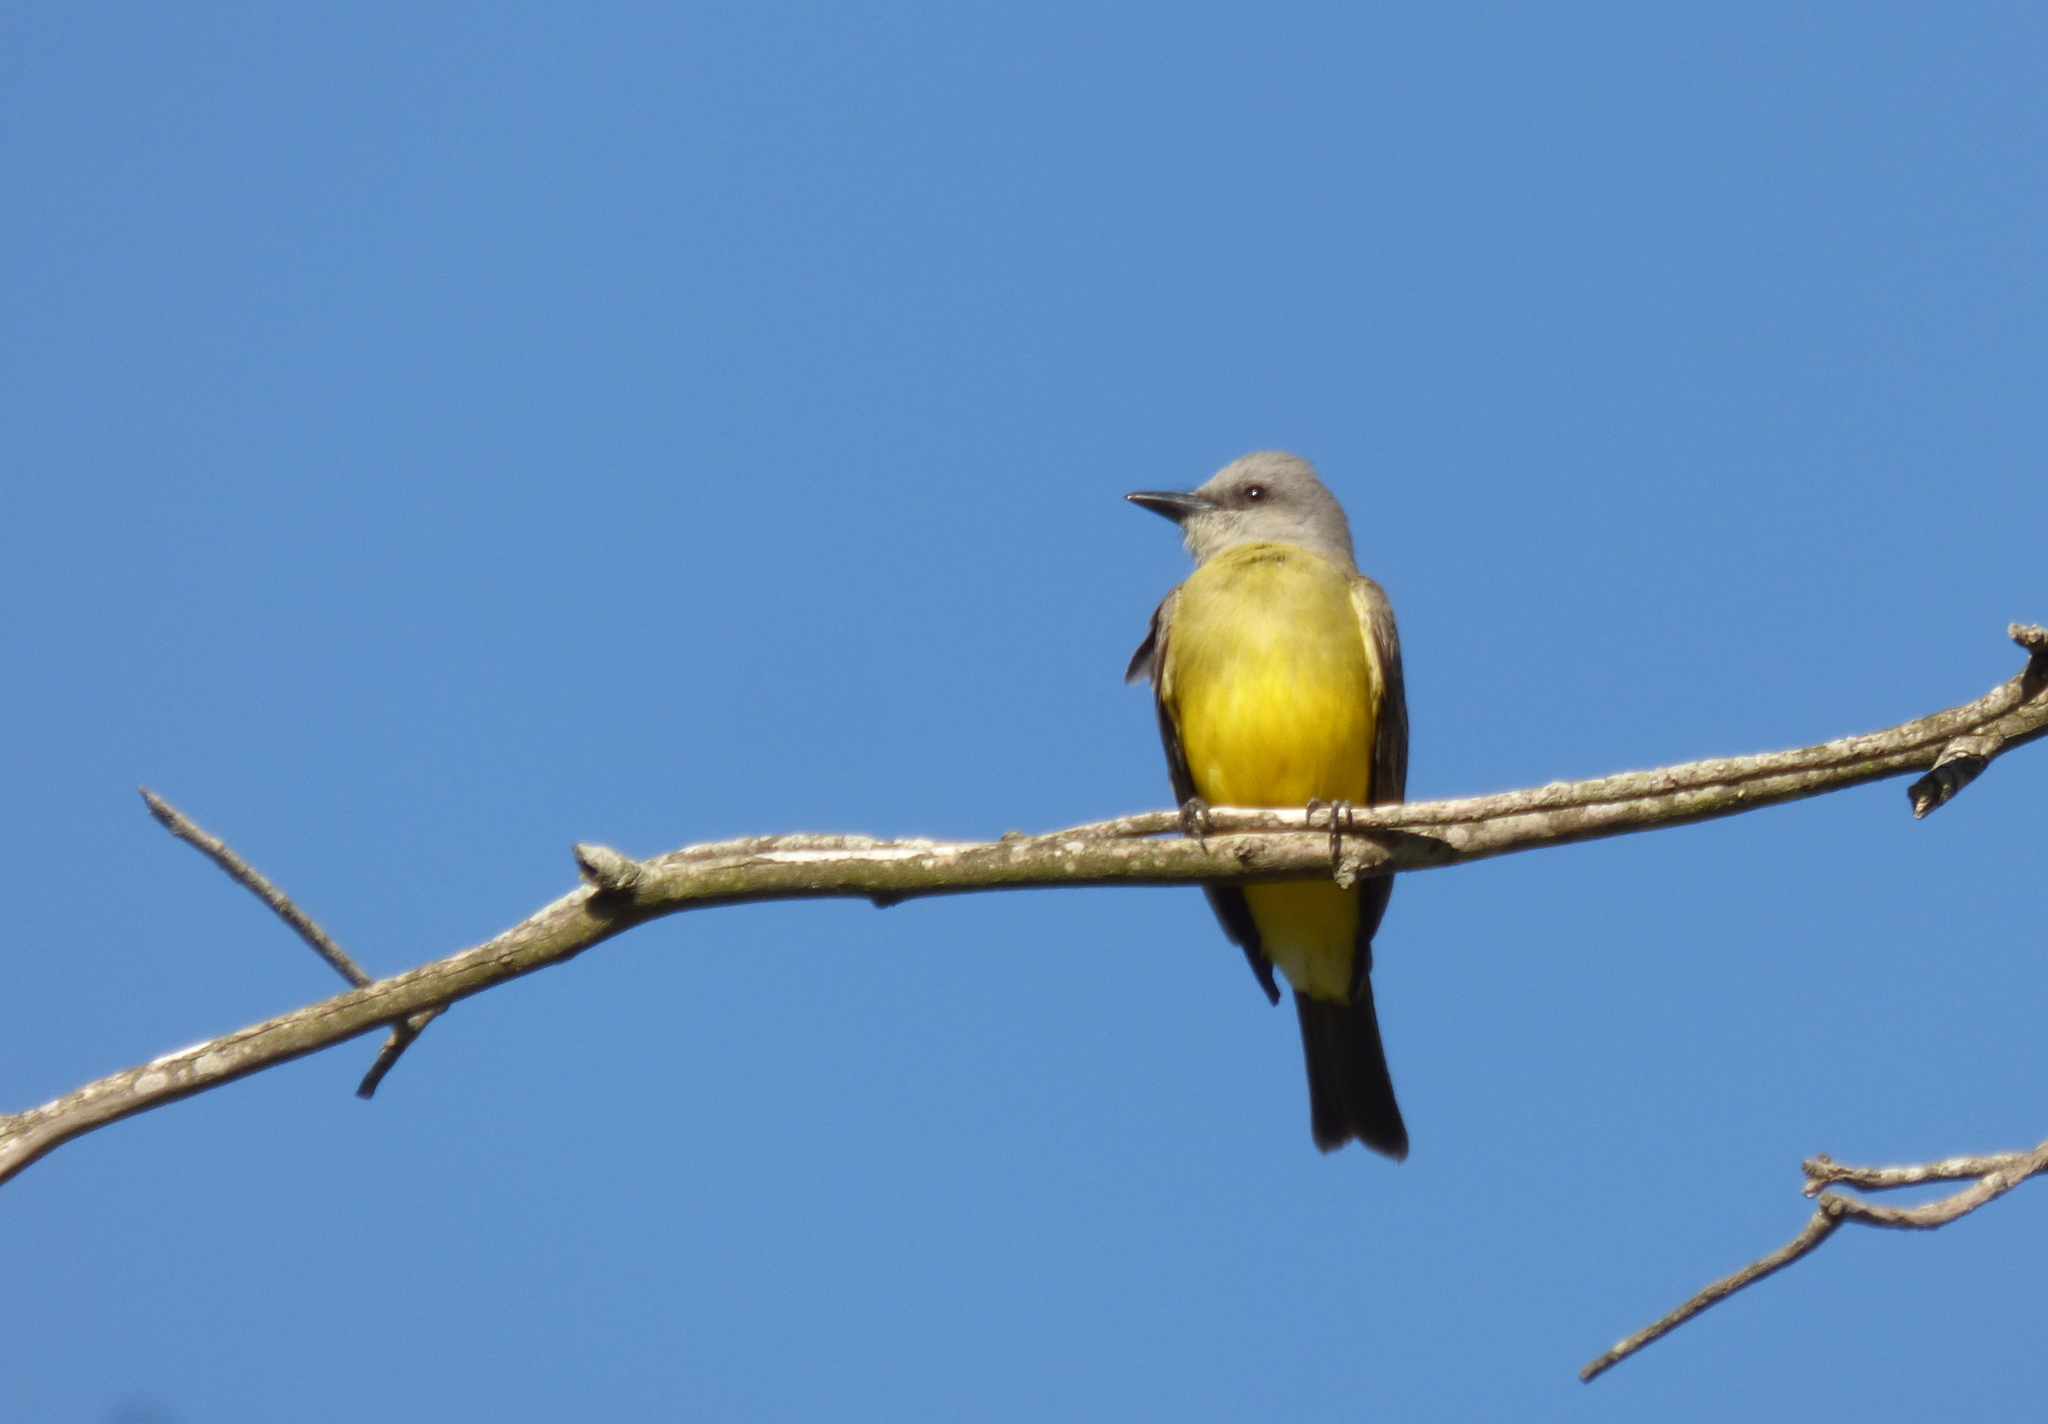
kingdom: Animalia
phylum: Chordata
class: Aves
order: Passeriformes
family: Tyrannidae
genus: Tyrannus
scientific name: Tyrannus melancholicus
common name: Tropical kingbird
